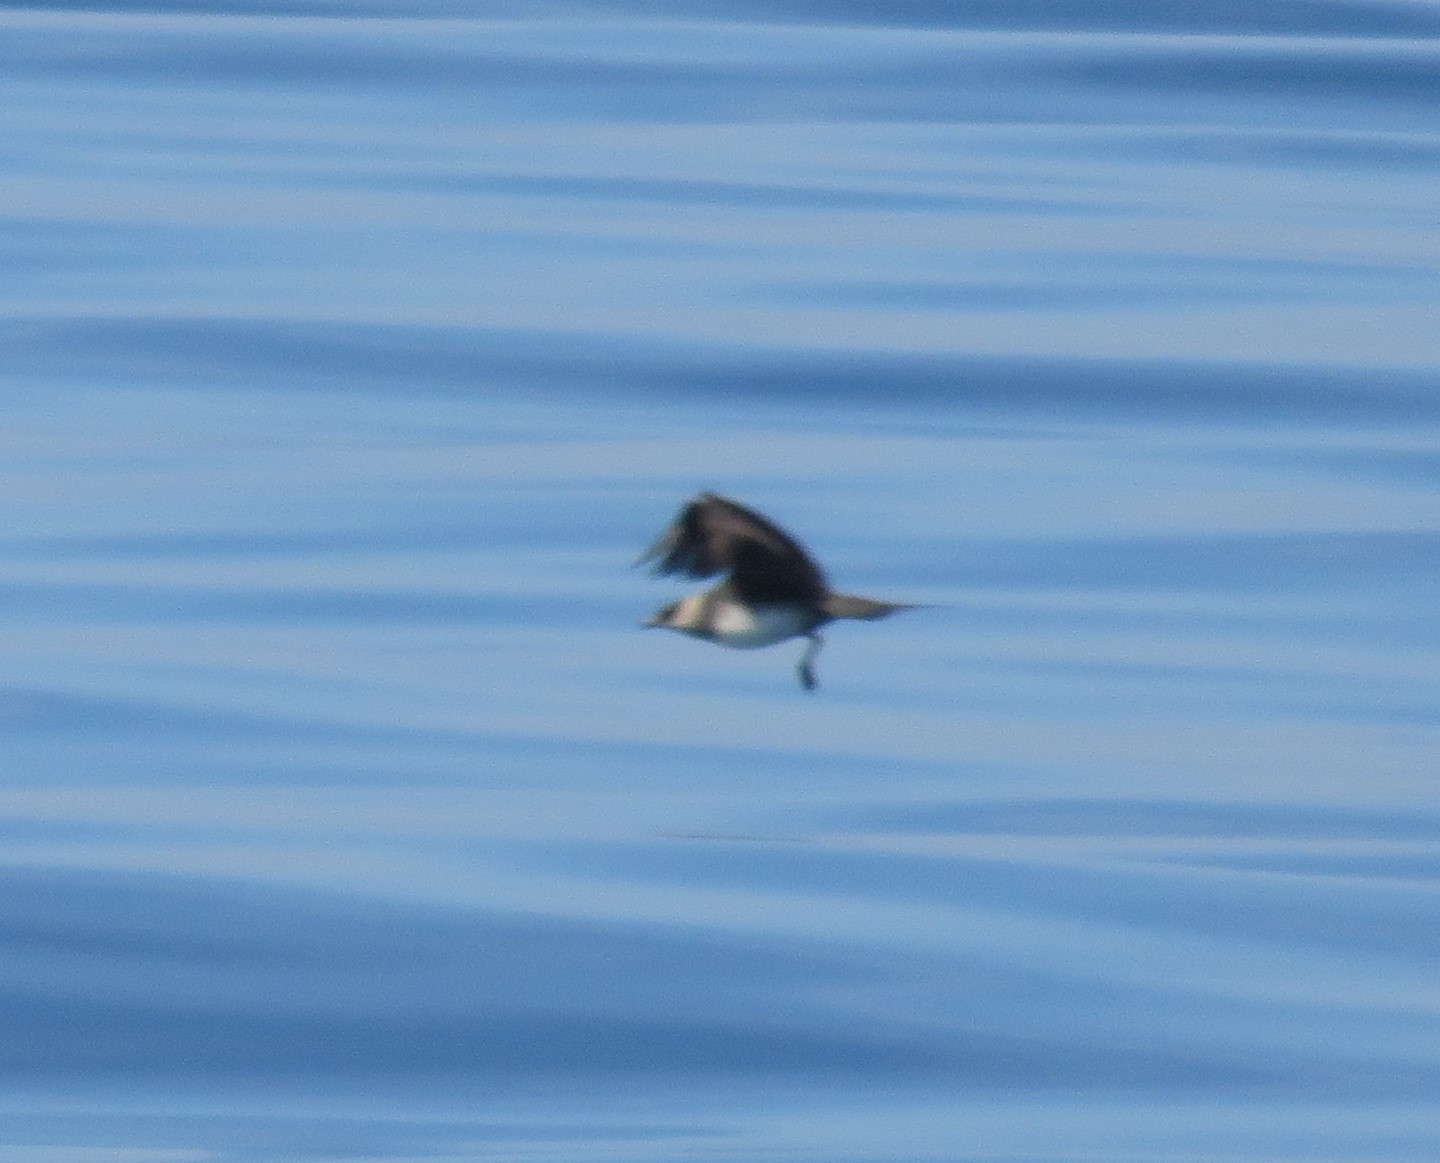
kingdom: Animalia
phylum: Chordata
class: Aves
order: Charadriiformes
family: Stercorariidae
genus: Stercorarius
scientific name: Stercorarius parasiticus
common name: Parasitic jaeger
